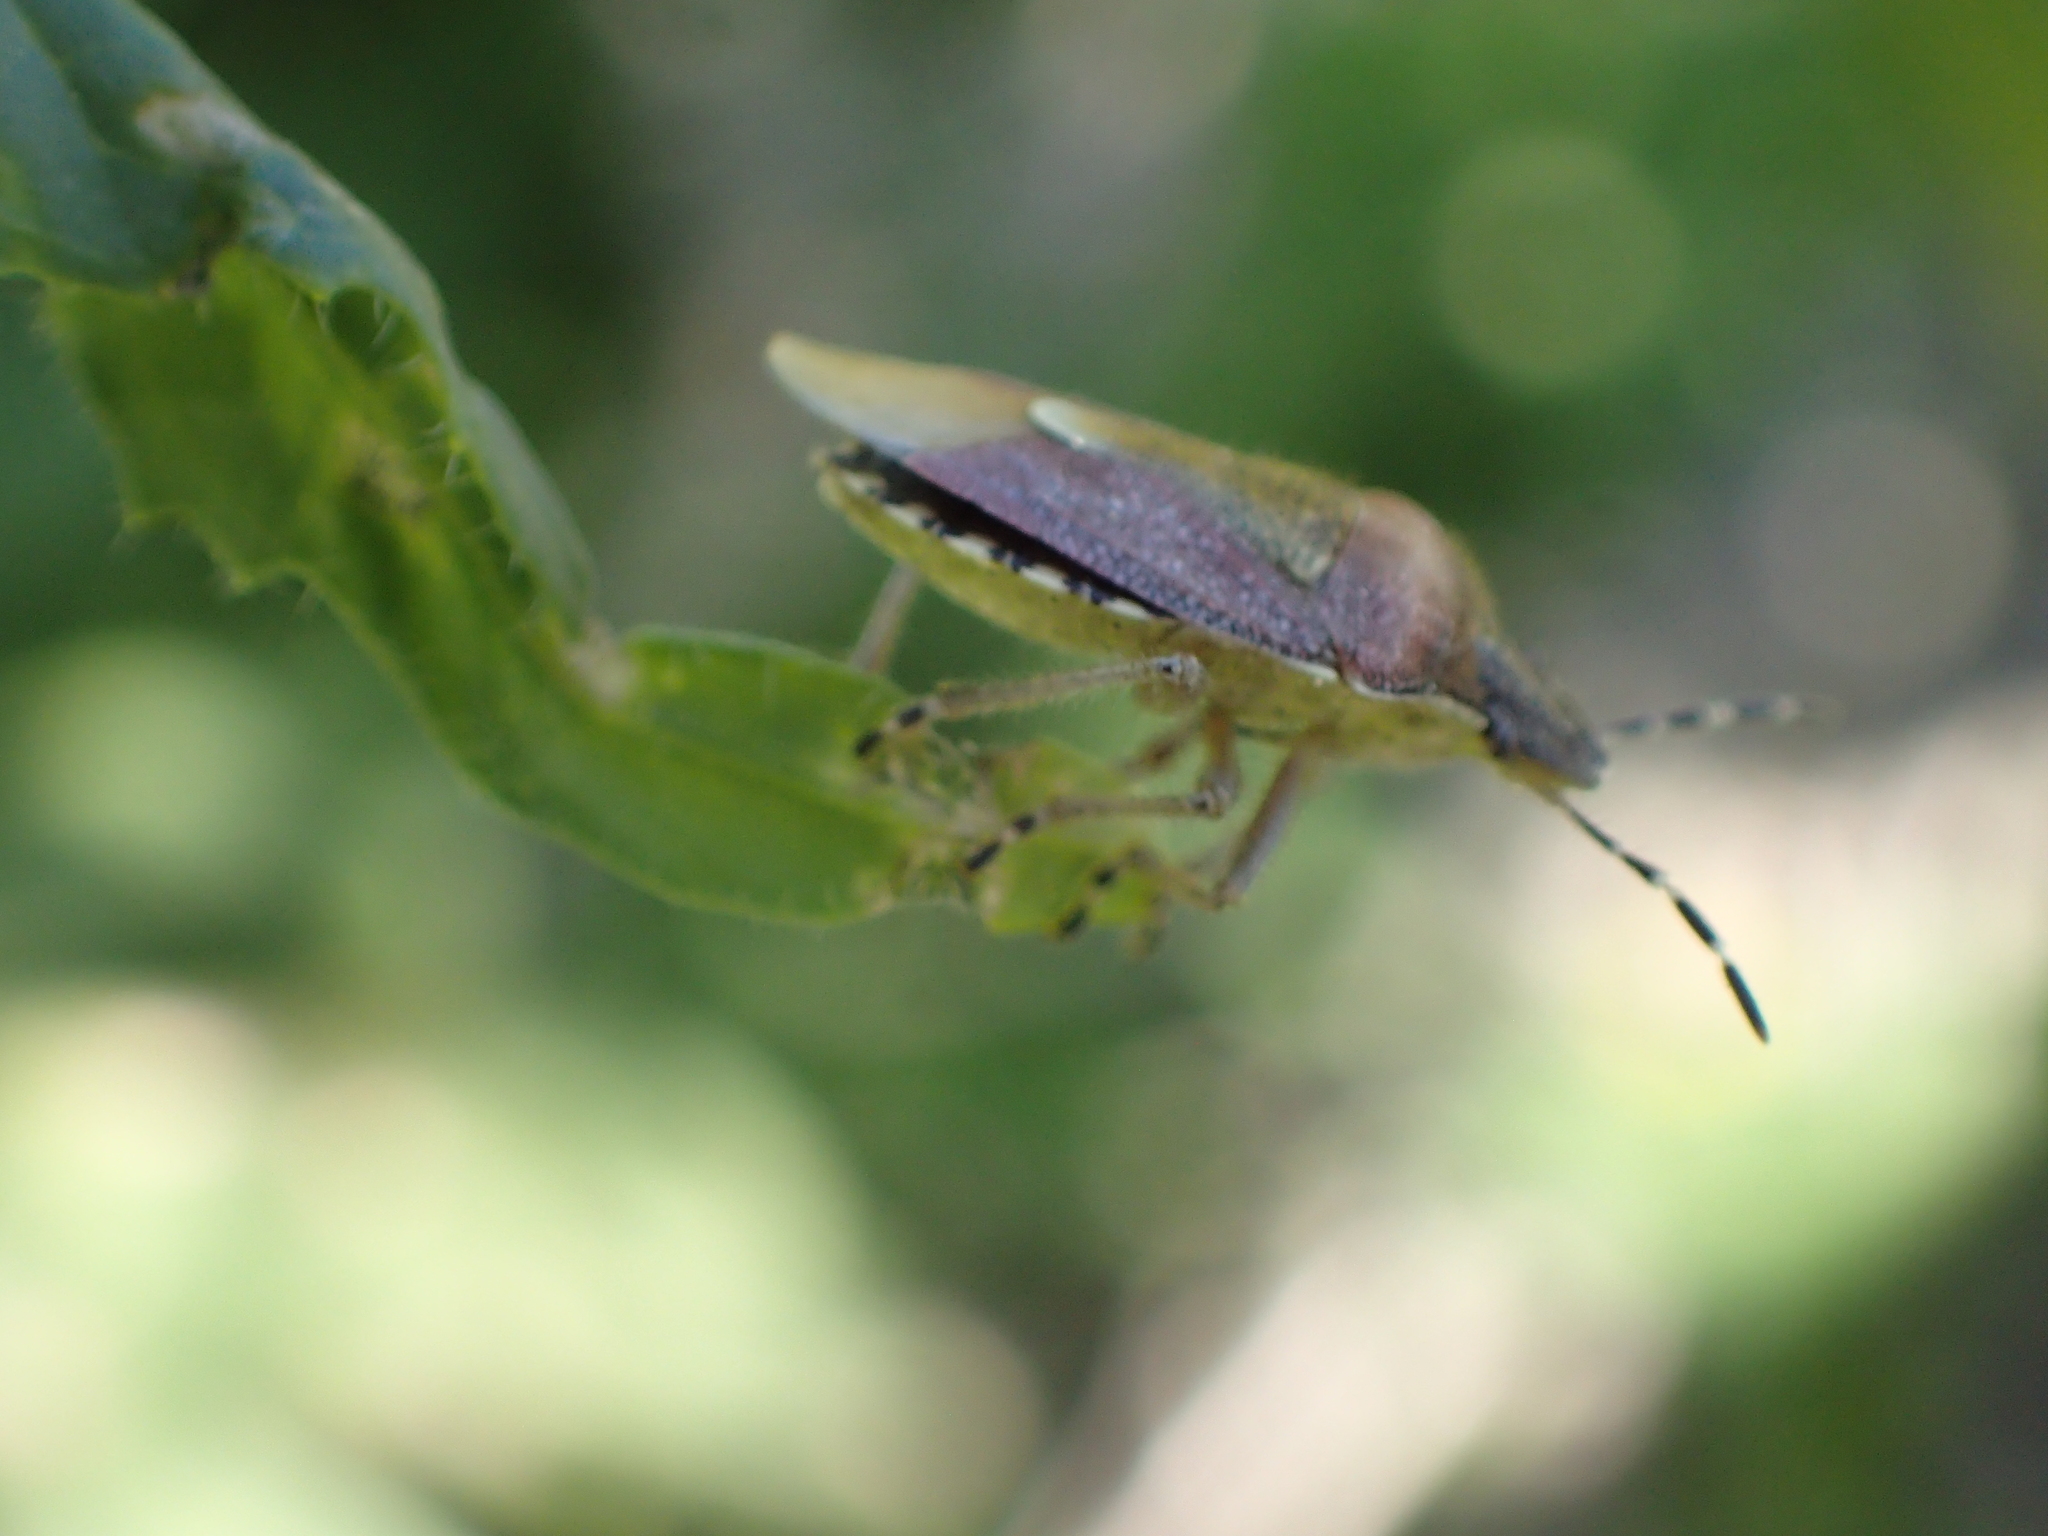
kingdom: Animalia
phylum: Arthropoda
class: Insecta
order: Hemiptera
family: Pentatomidae
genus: Dolycoris
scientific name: Dolycoris baccarum
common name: Sloe bug
